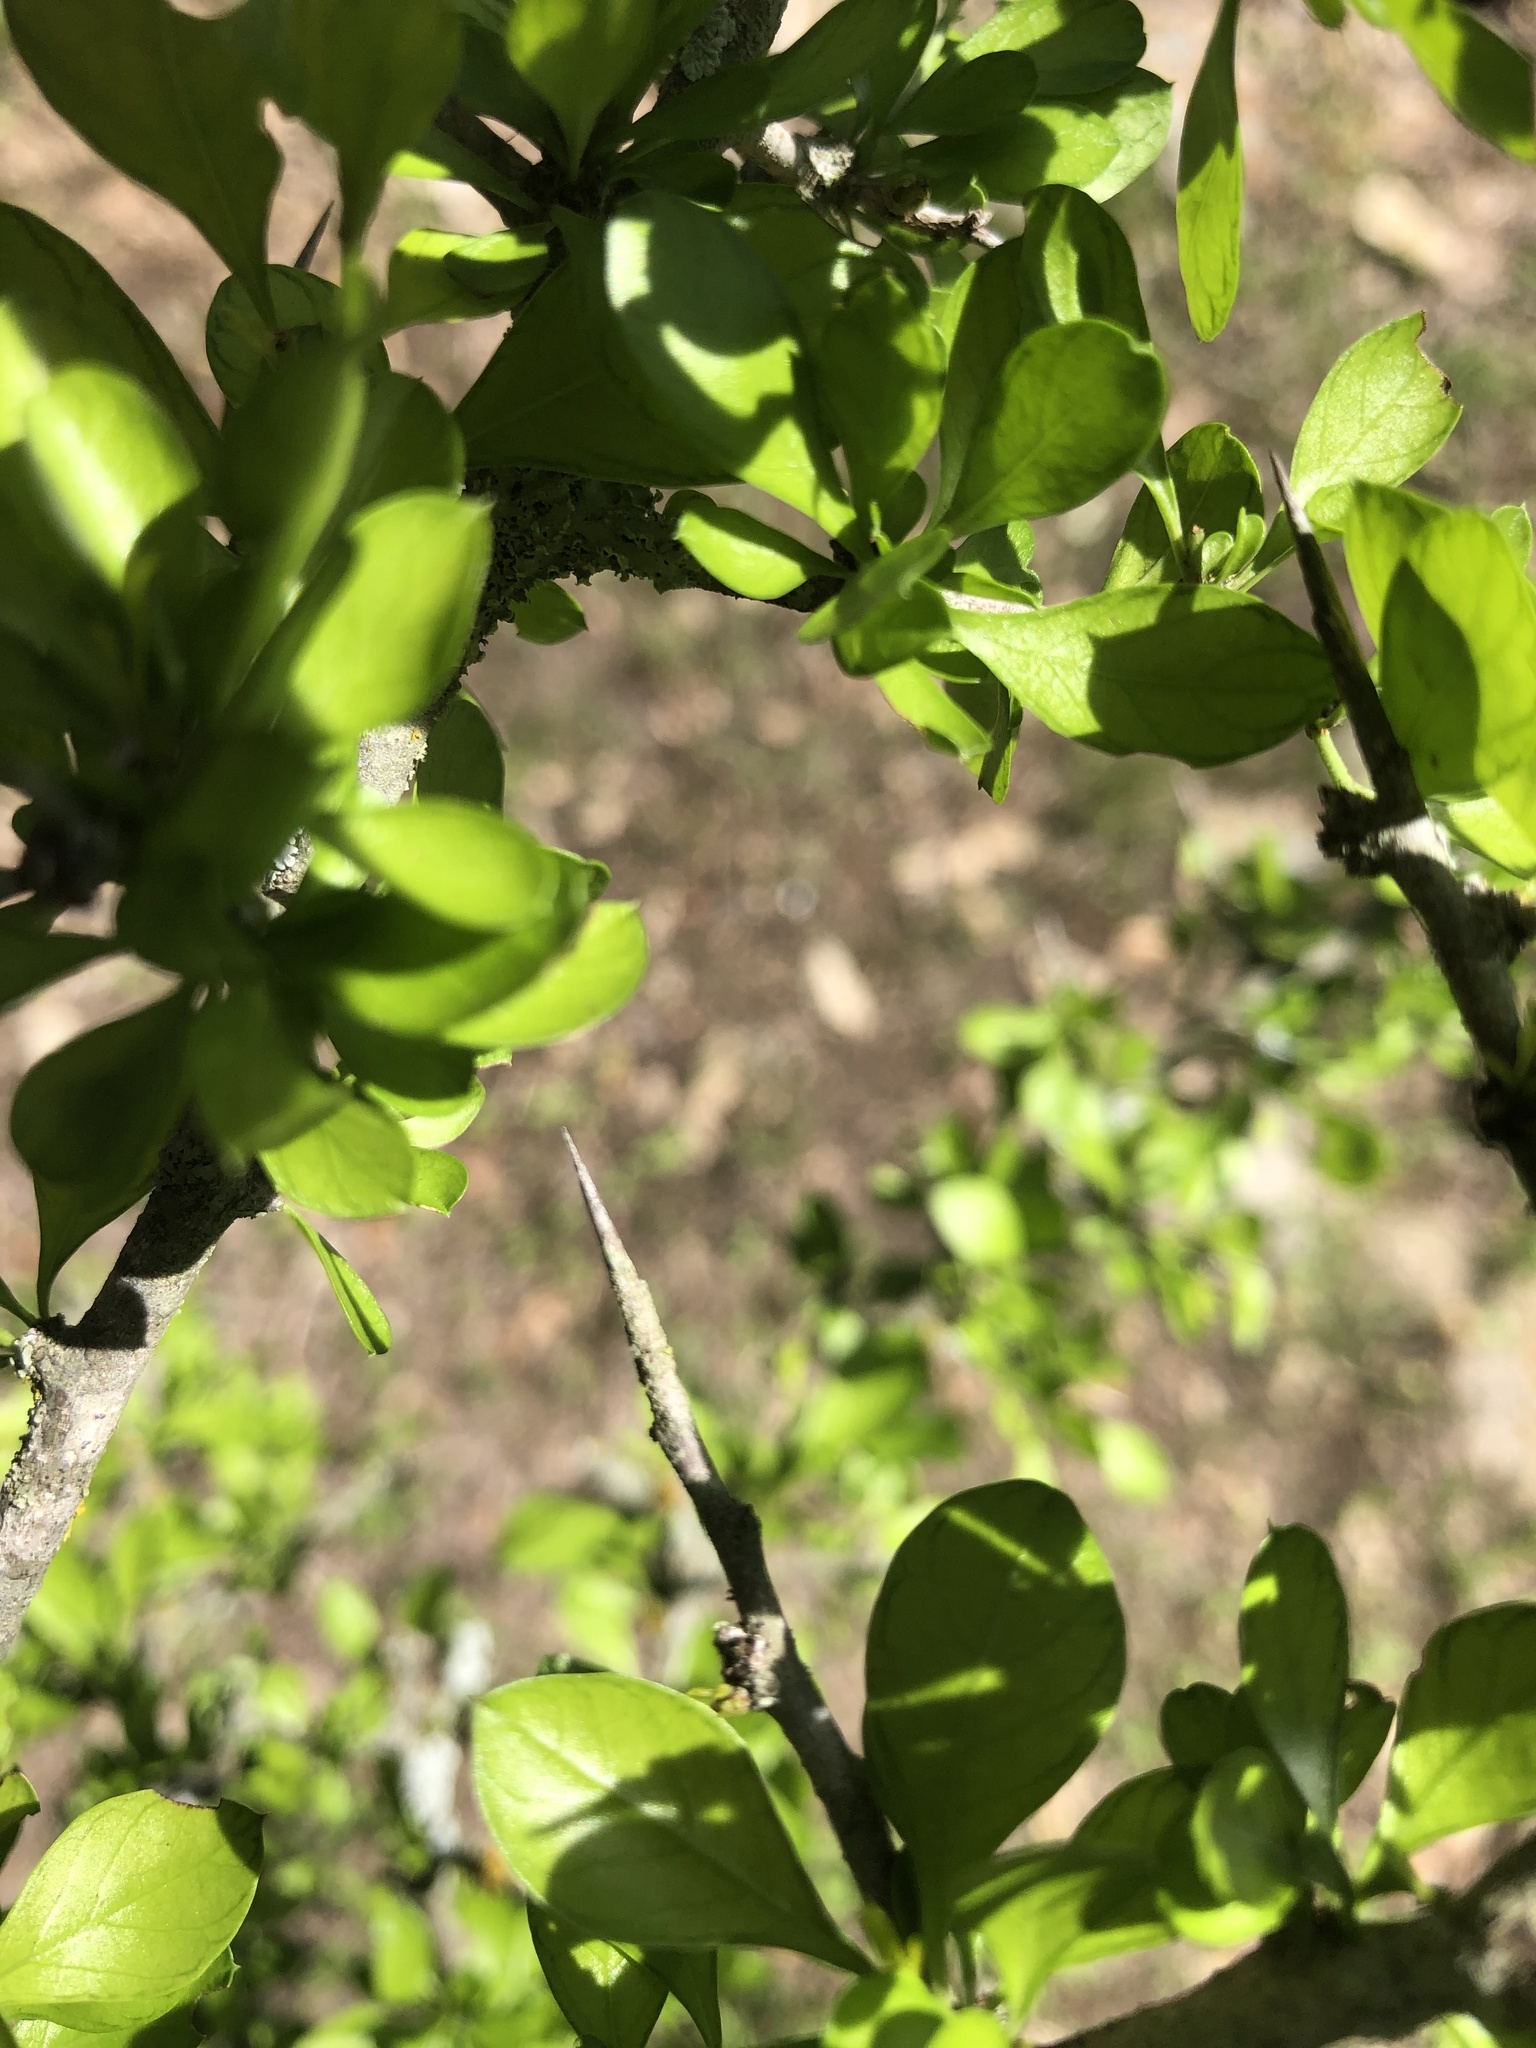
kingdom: Plantae
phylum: Tracheophyta
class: Magnoliopsida
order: Rosales
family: Rhamnaceae
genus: Condalia
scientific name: Condalia hookeri
